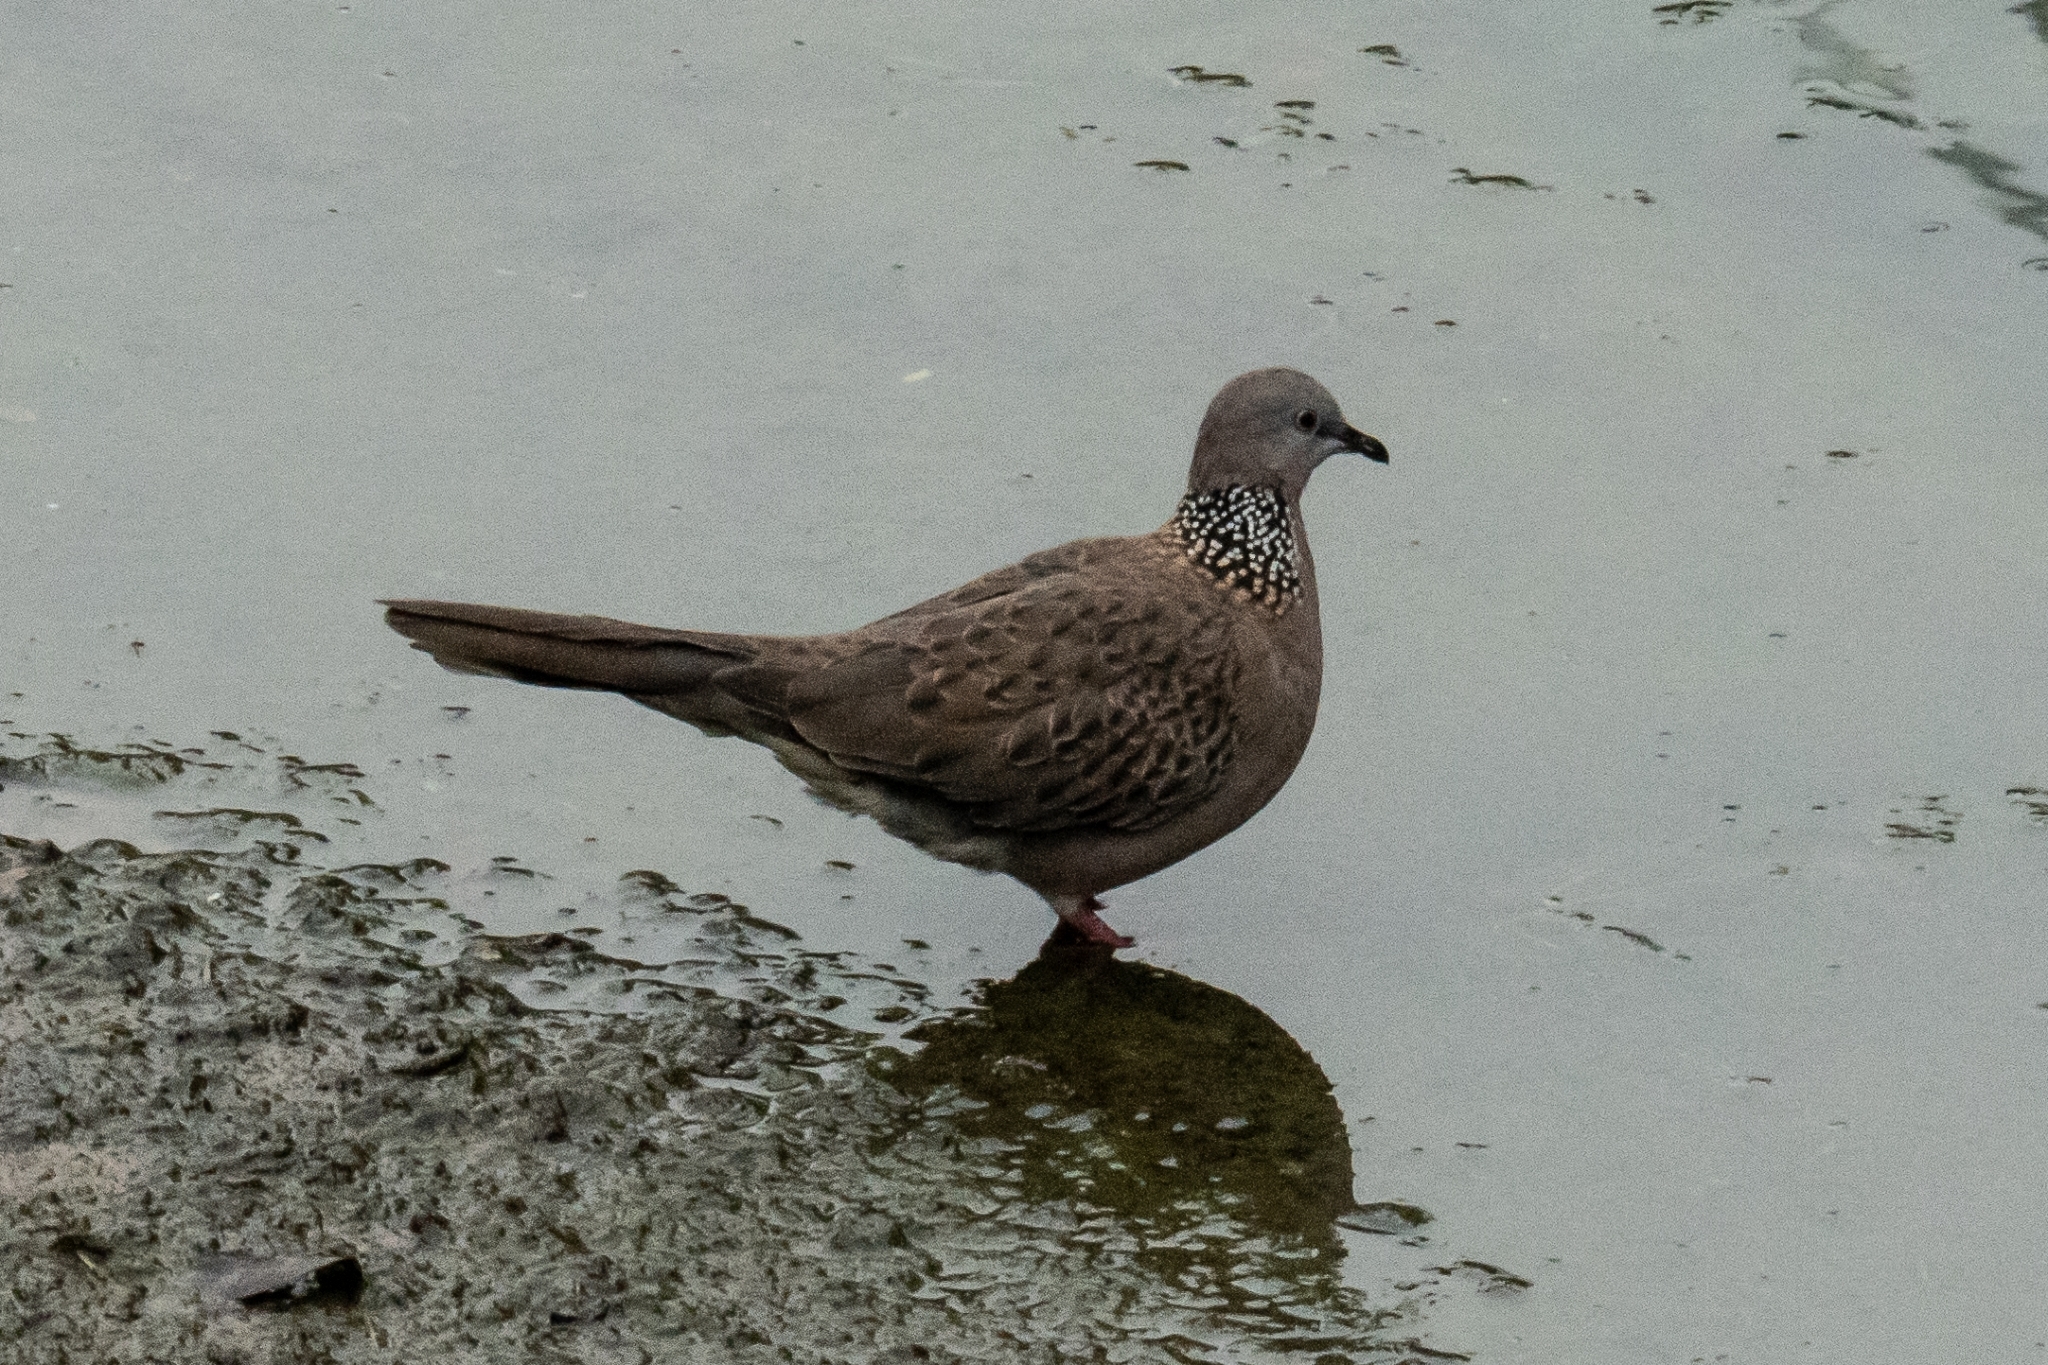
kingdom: Animalia
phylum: Chordata
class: Aves
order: Columbiformes
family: Columbidae
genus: Spilopelia
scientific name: Spilopelia chinensis
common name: Spotted dove
